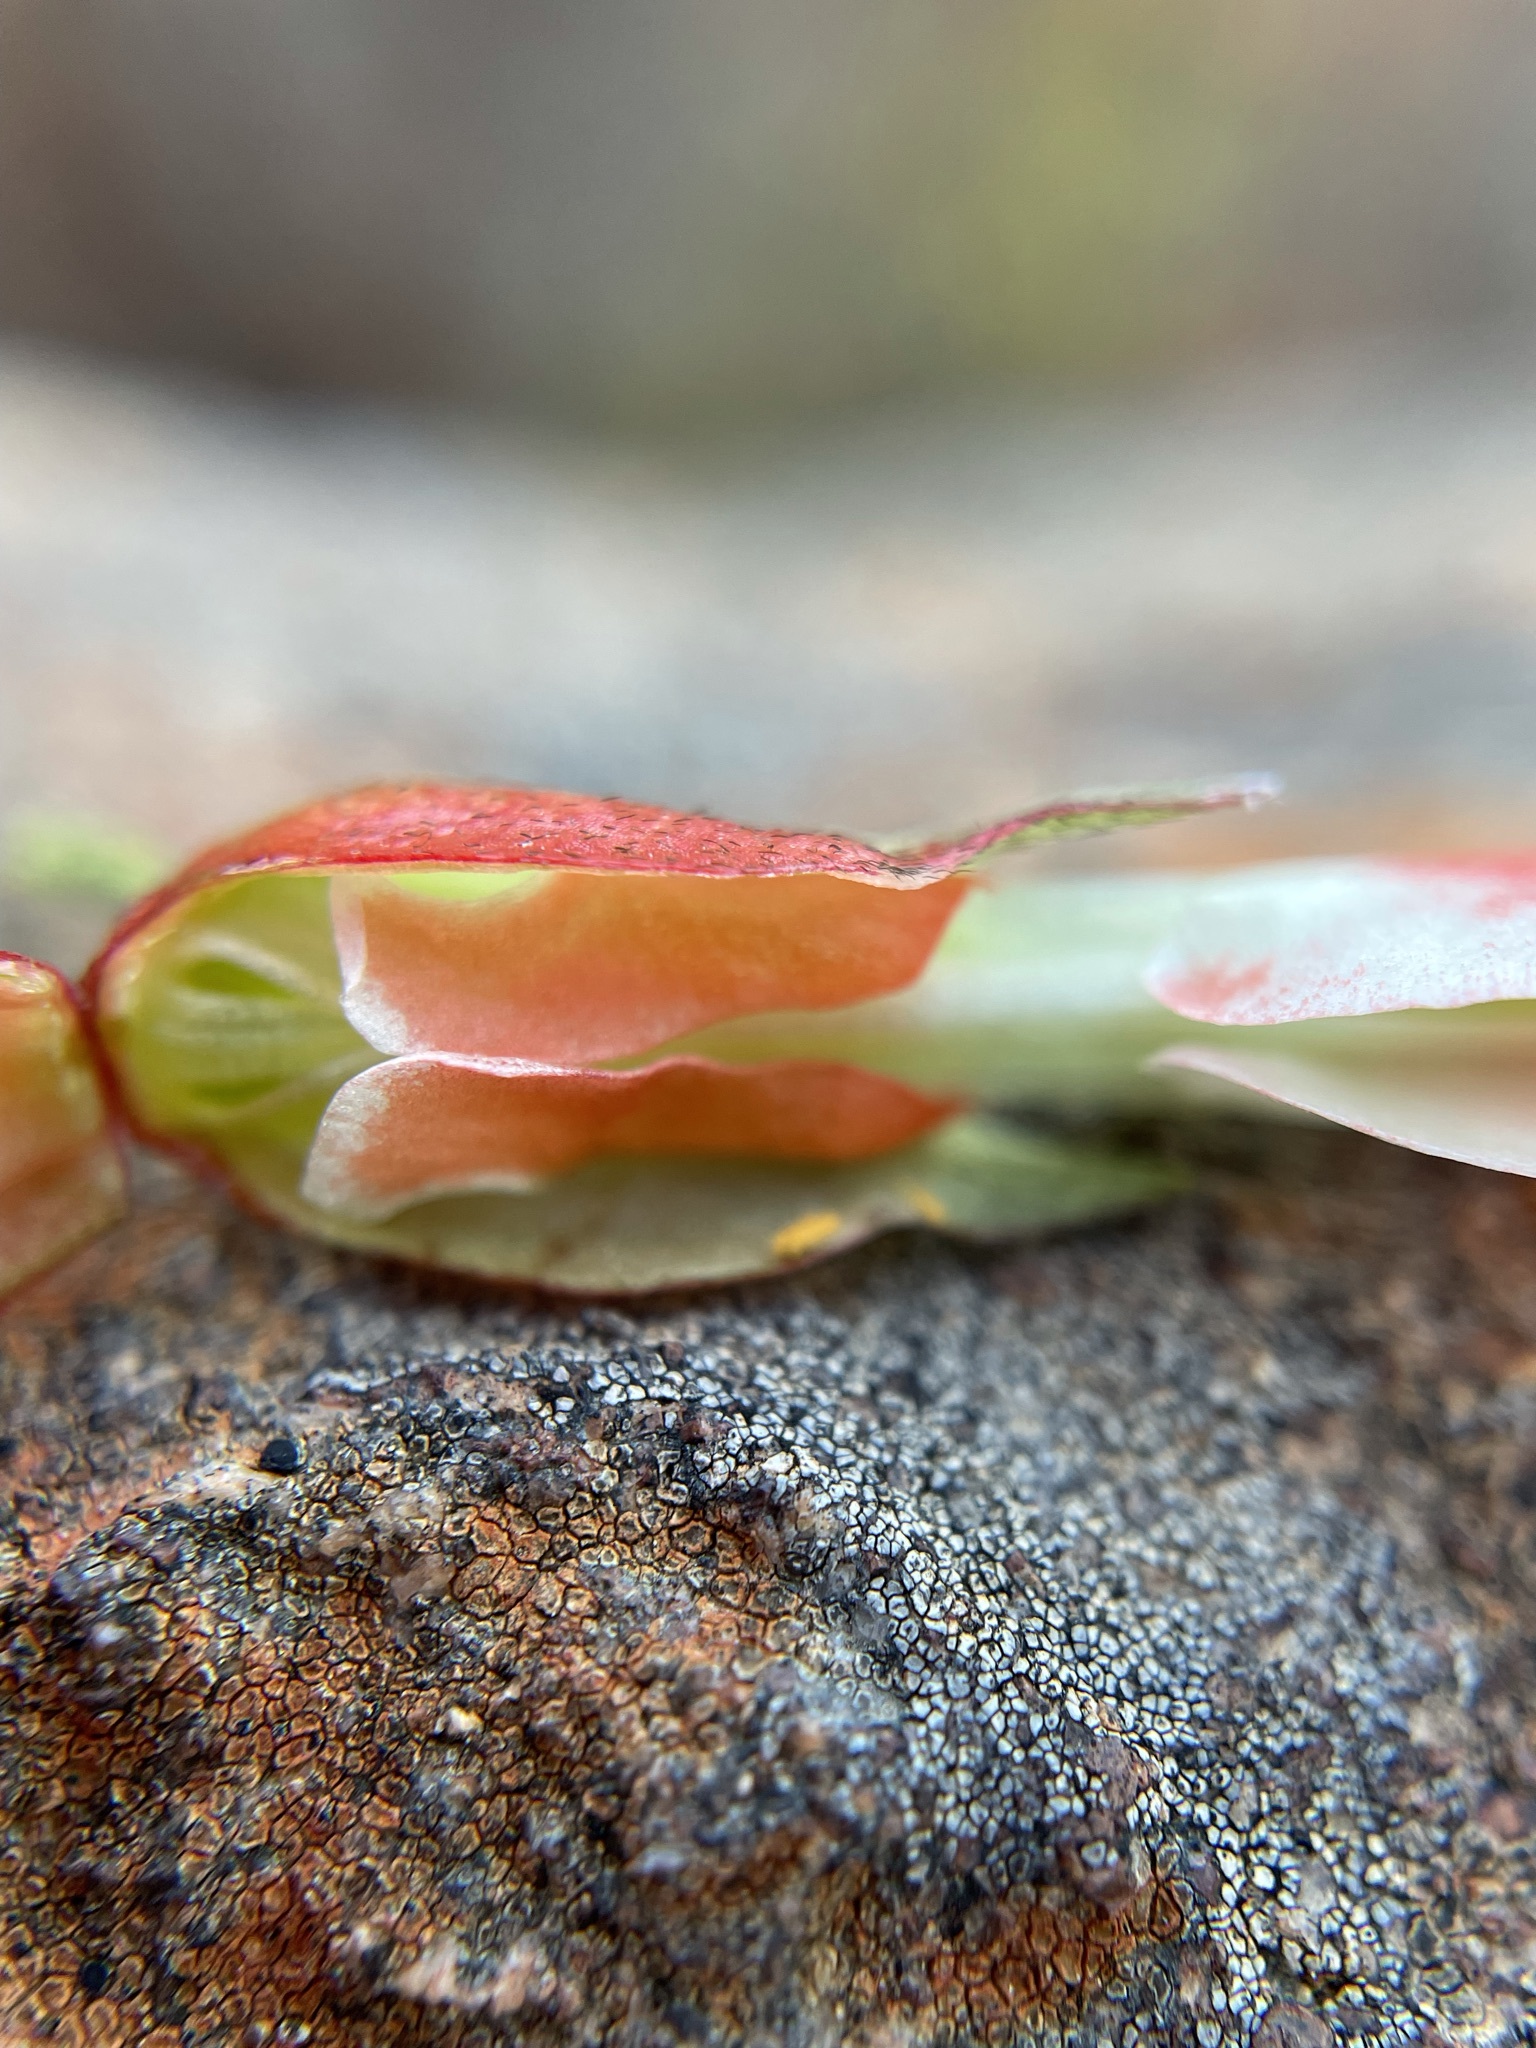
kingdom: Plantae
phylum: Tracheophyta
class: Magnoliopsida
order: Fabales
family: Fabaceae
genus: Lessertia
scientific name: Lessertia frutescens
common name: Balloon-pea
